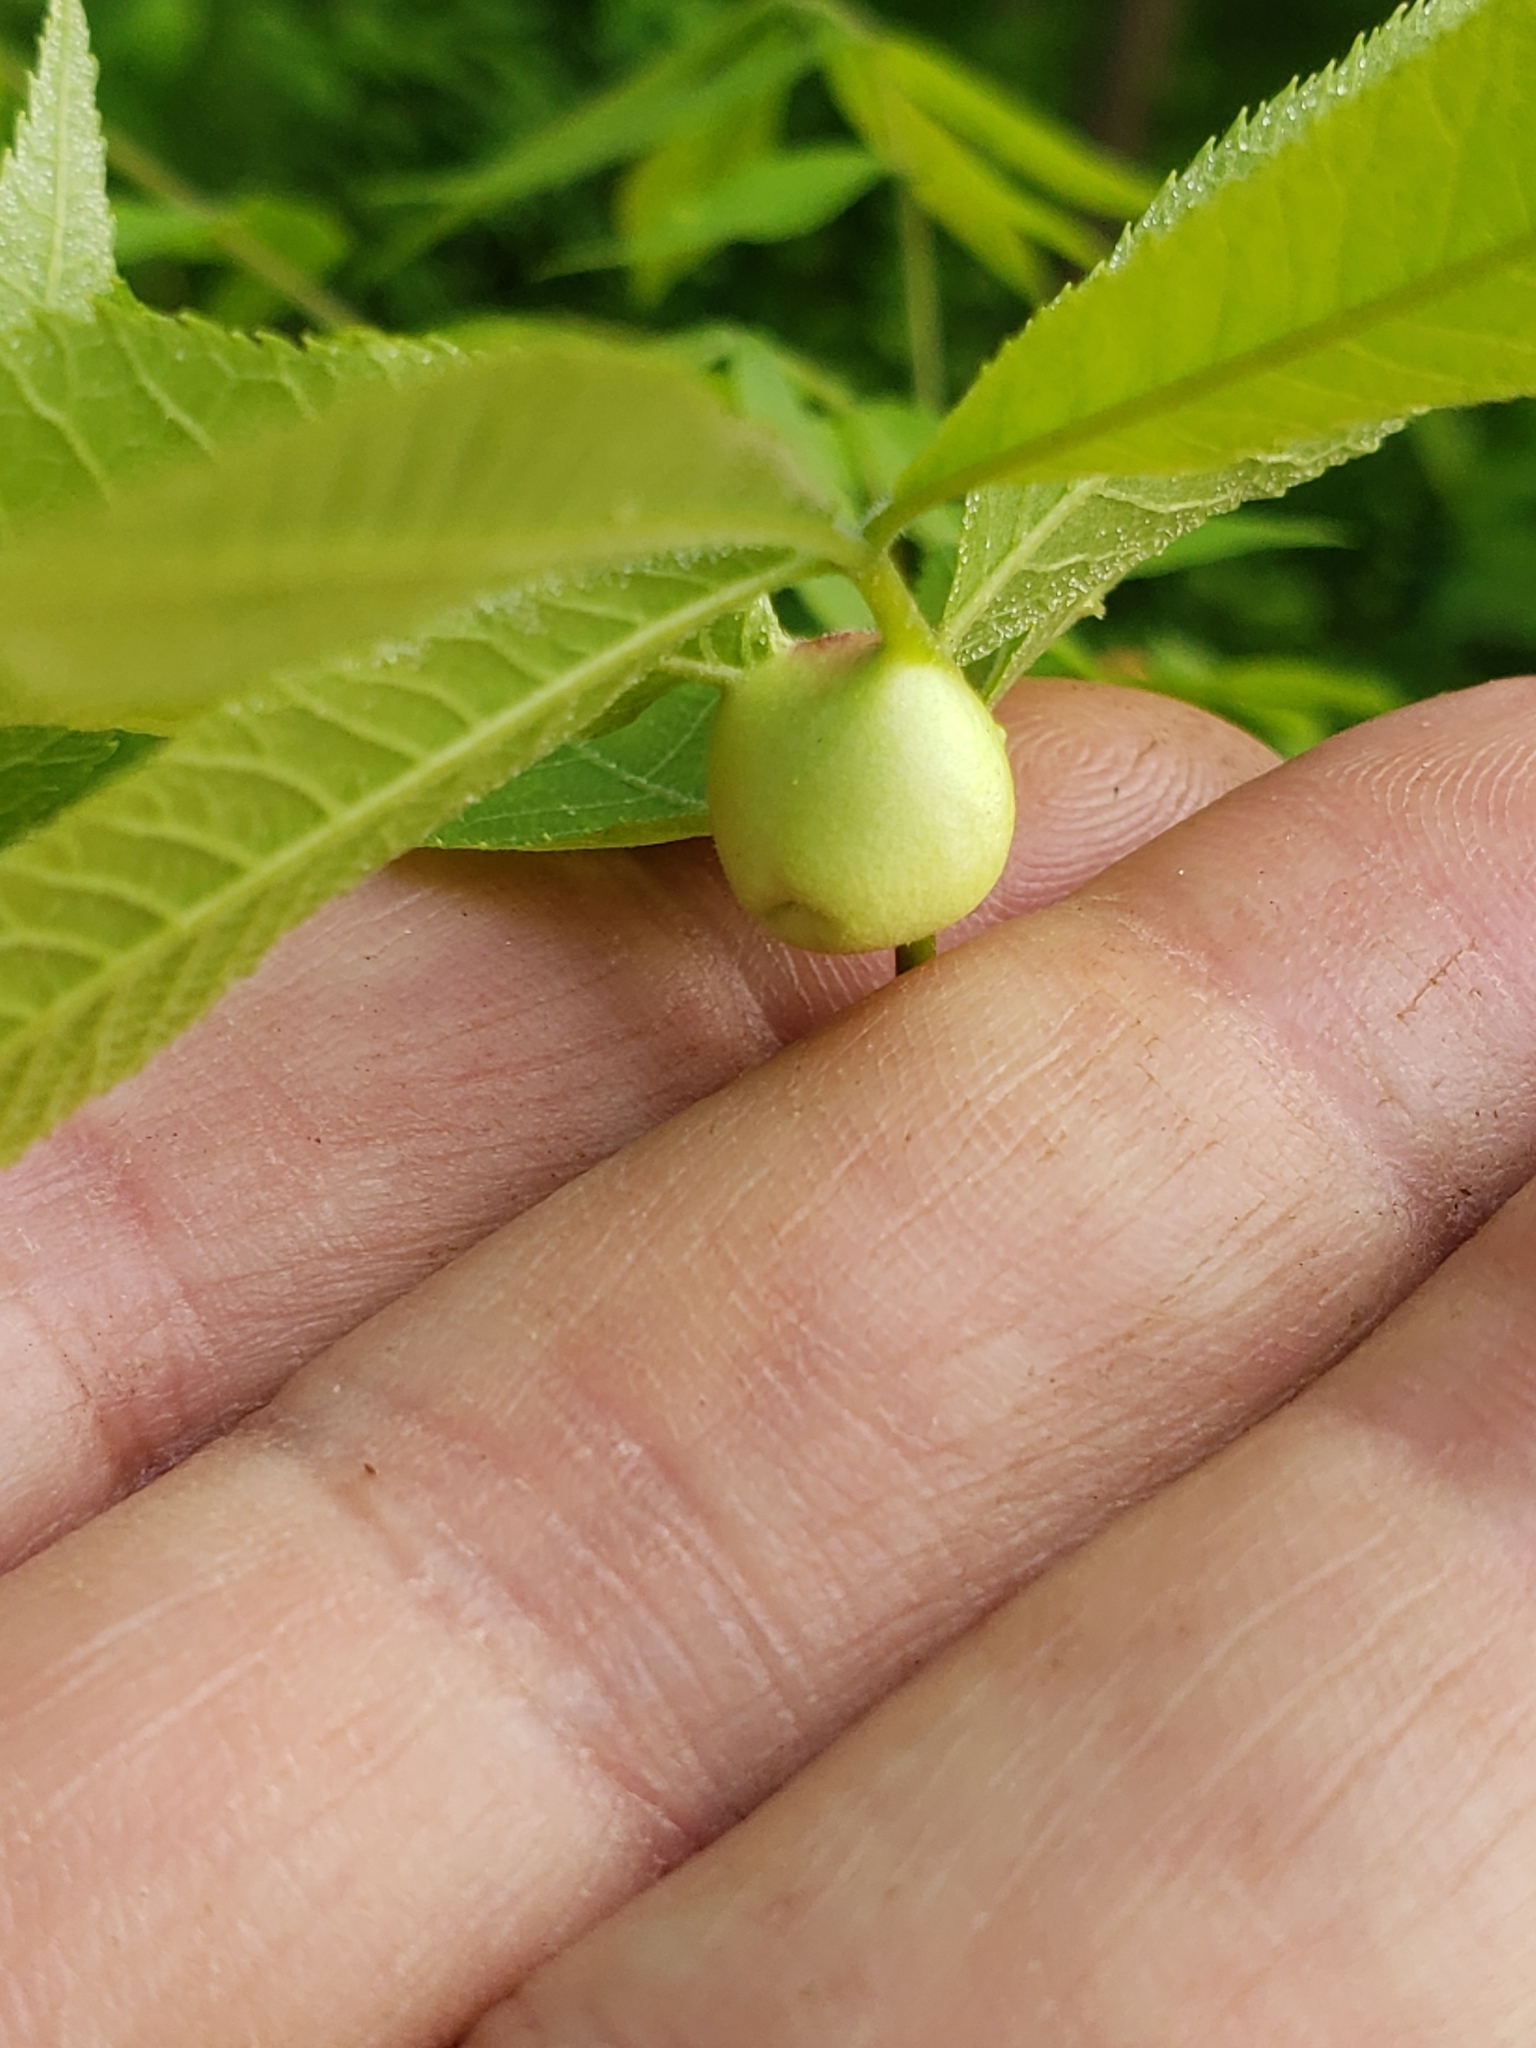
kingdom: Animalia
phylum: Arthropoda
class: Insecta
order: Hemiptera
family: Phylloxeridae
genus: Phylloxera
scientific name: Phylloxera
